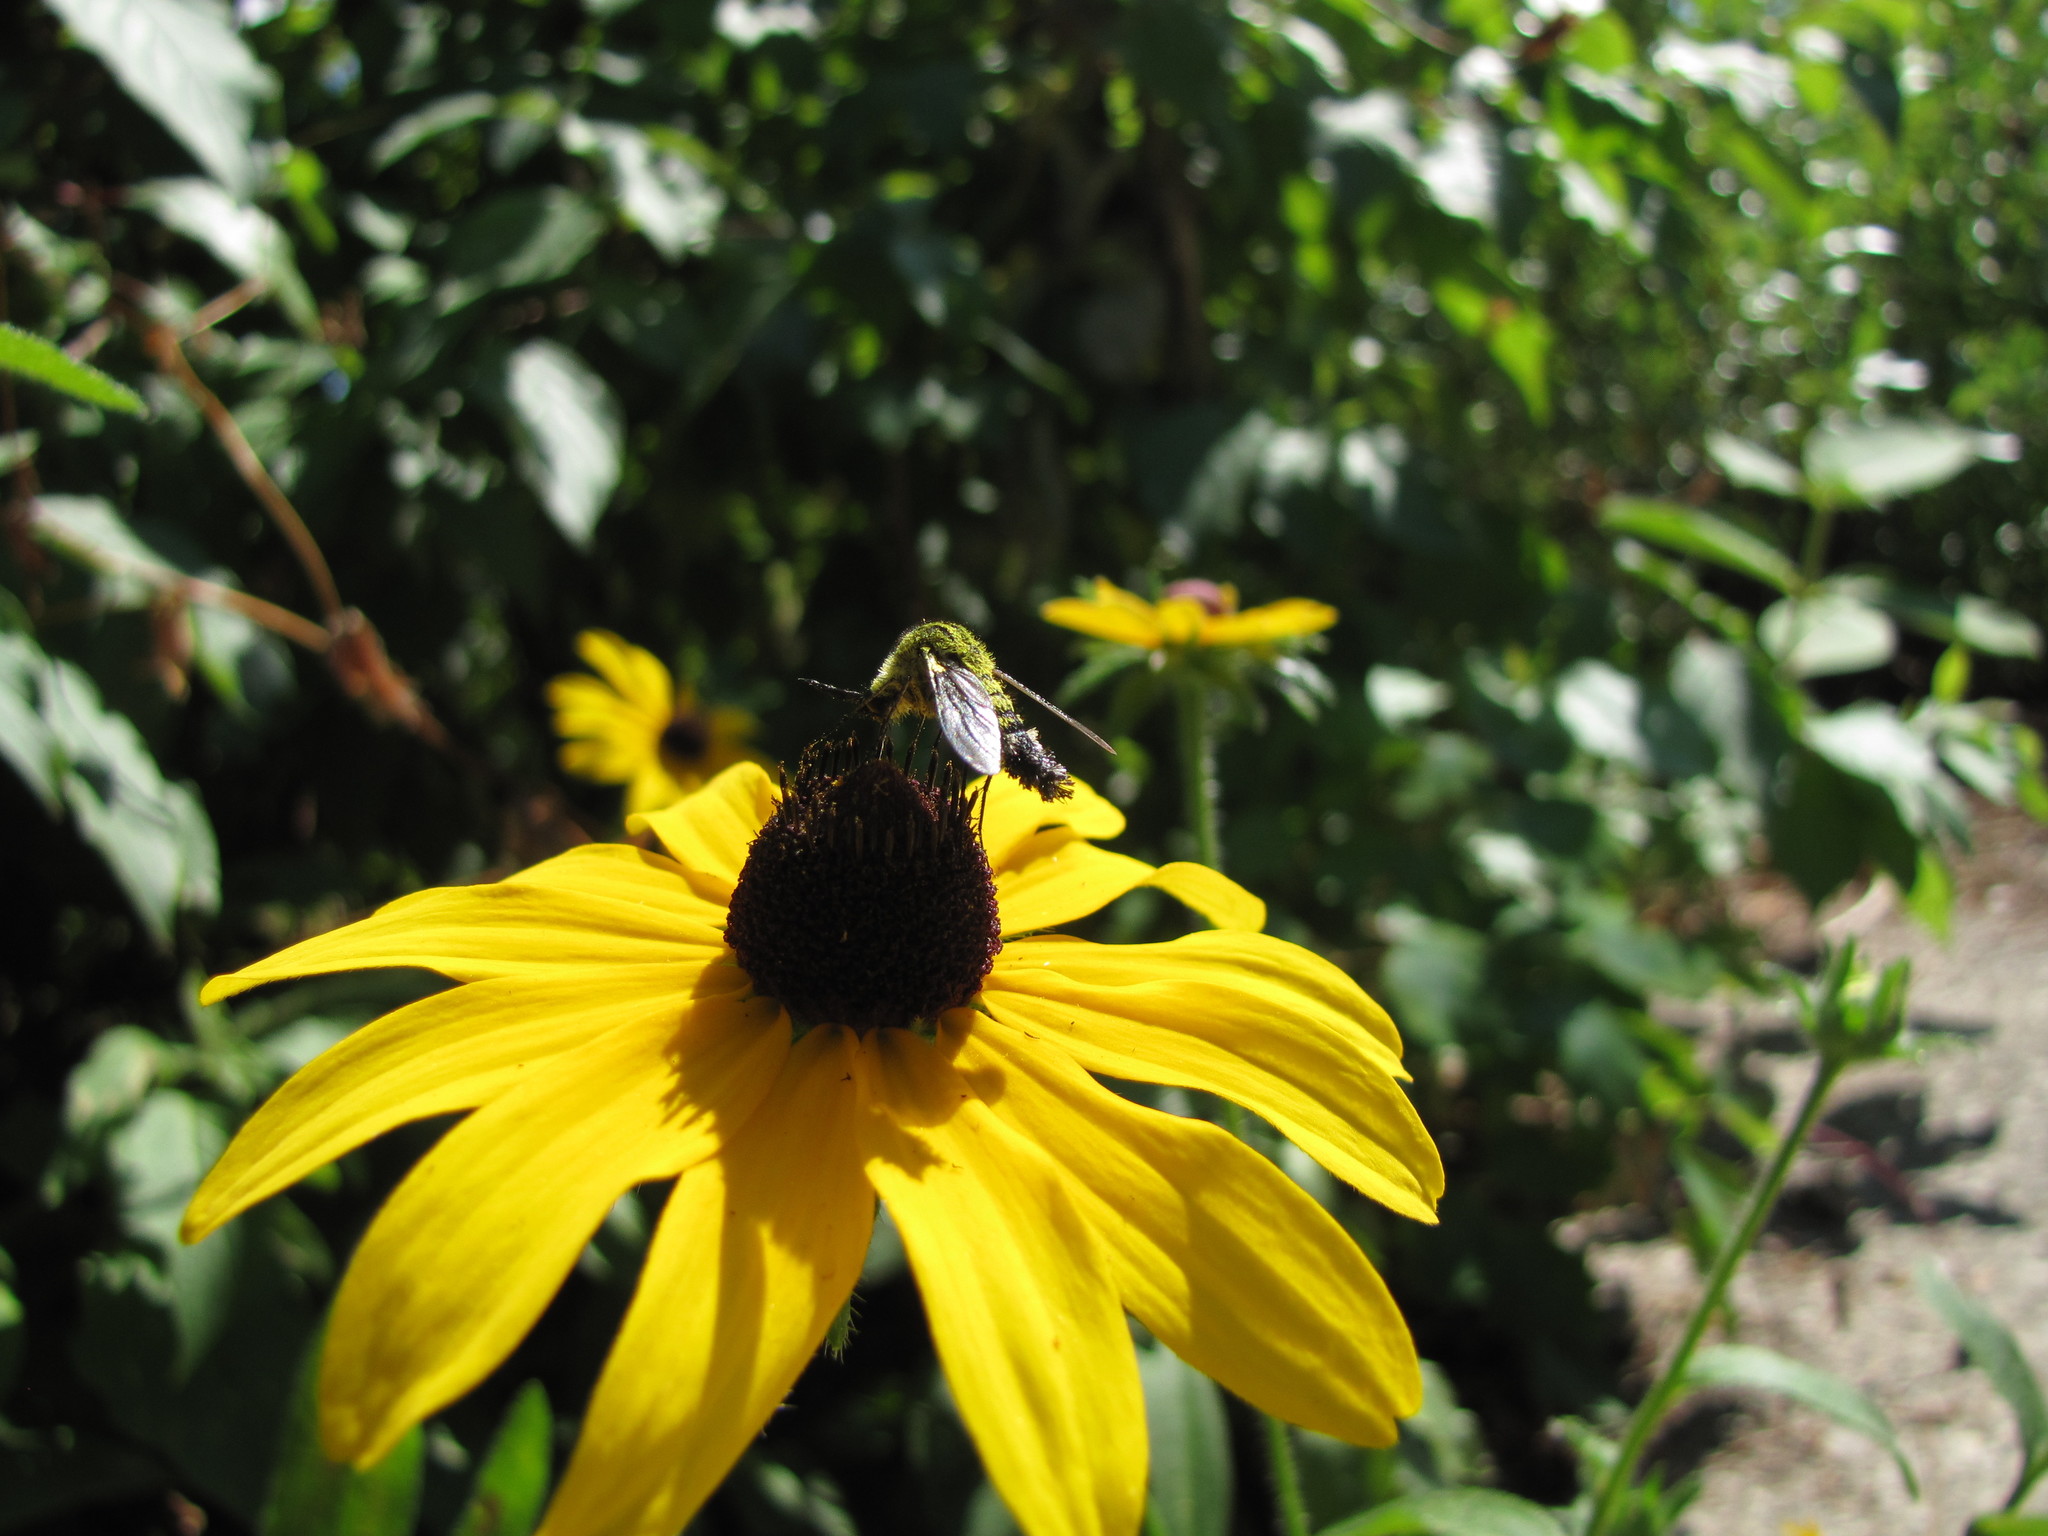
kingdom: Plantae
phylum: Tracheophyta
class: Magnoliopsida
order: Asterales
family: Asteraceae
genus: Rudbeckia
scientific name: Rudbeckia hirta
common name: Black-eyed-susan
